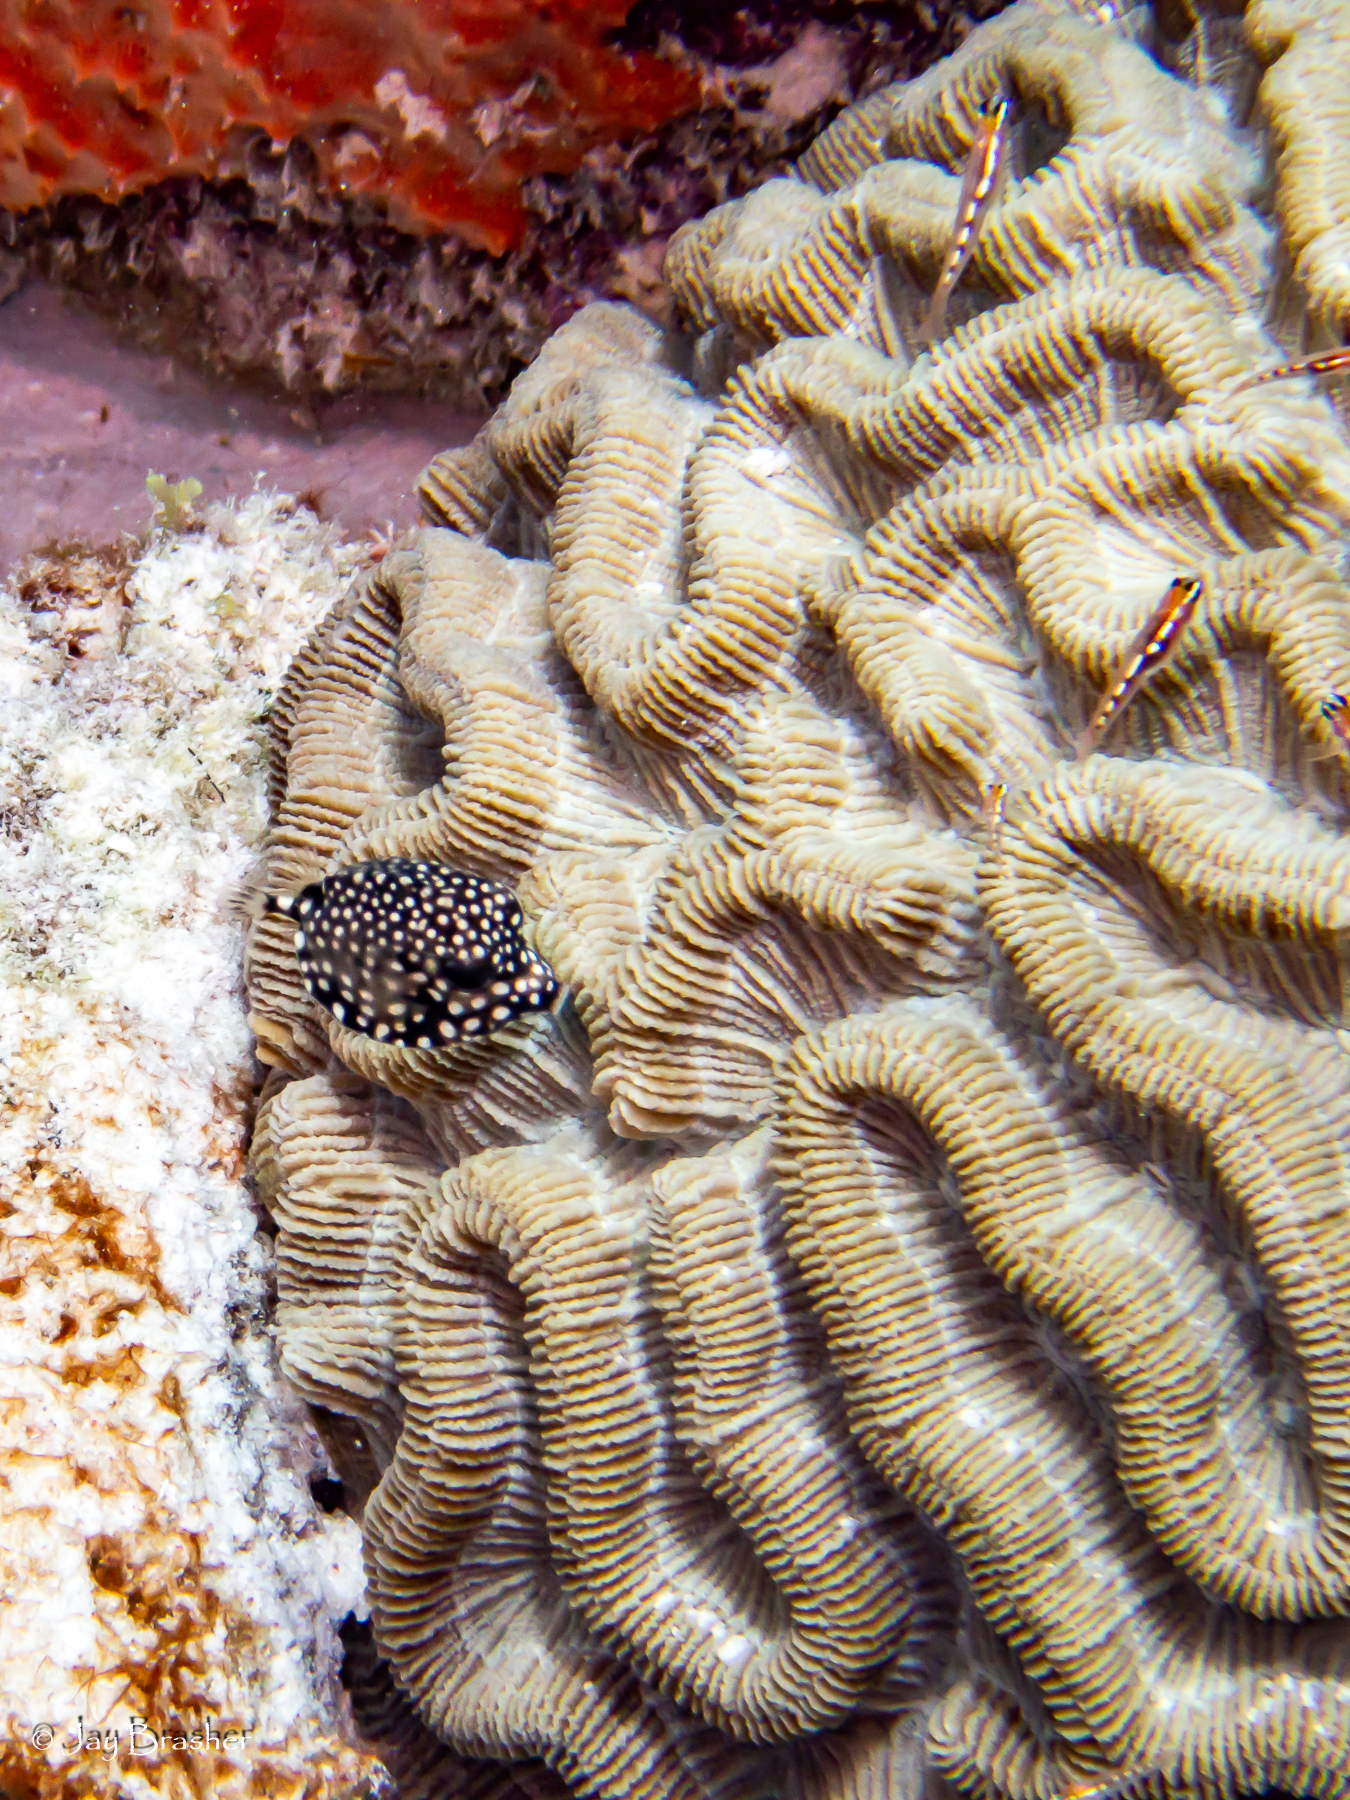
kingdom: Animalia
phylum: Cnidaria
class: Anthozoa
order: Scleractinia
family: Faviidae
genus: Colpophyllia
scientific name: Colpophyllia natans
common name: Boulder brain coral
